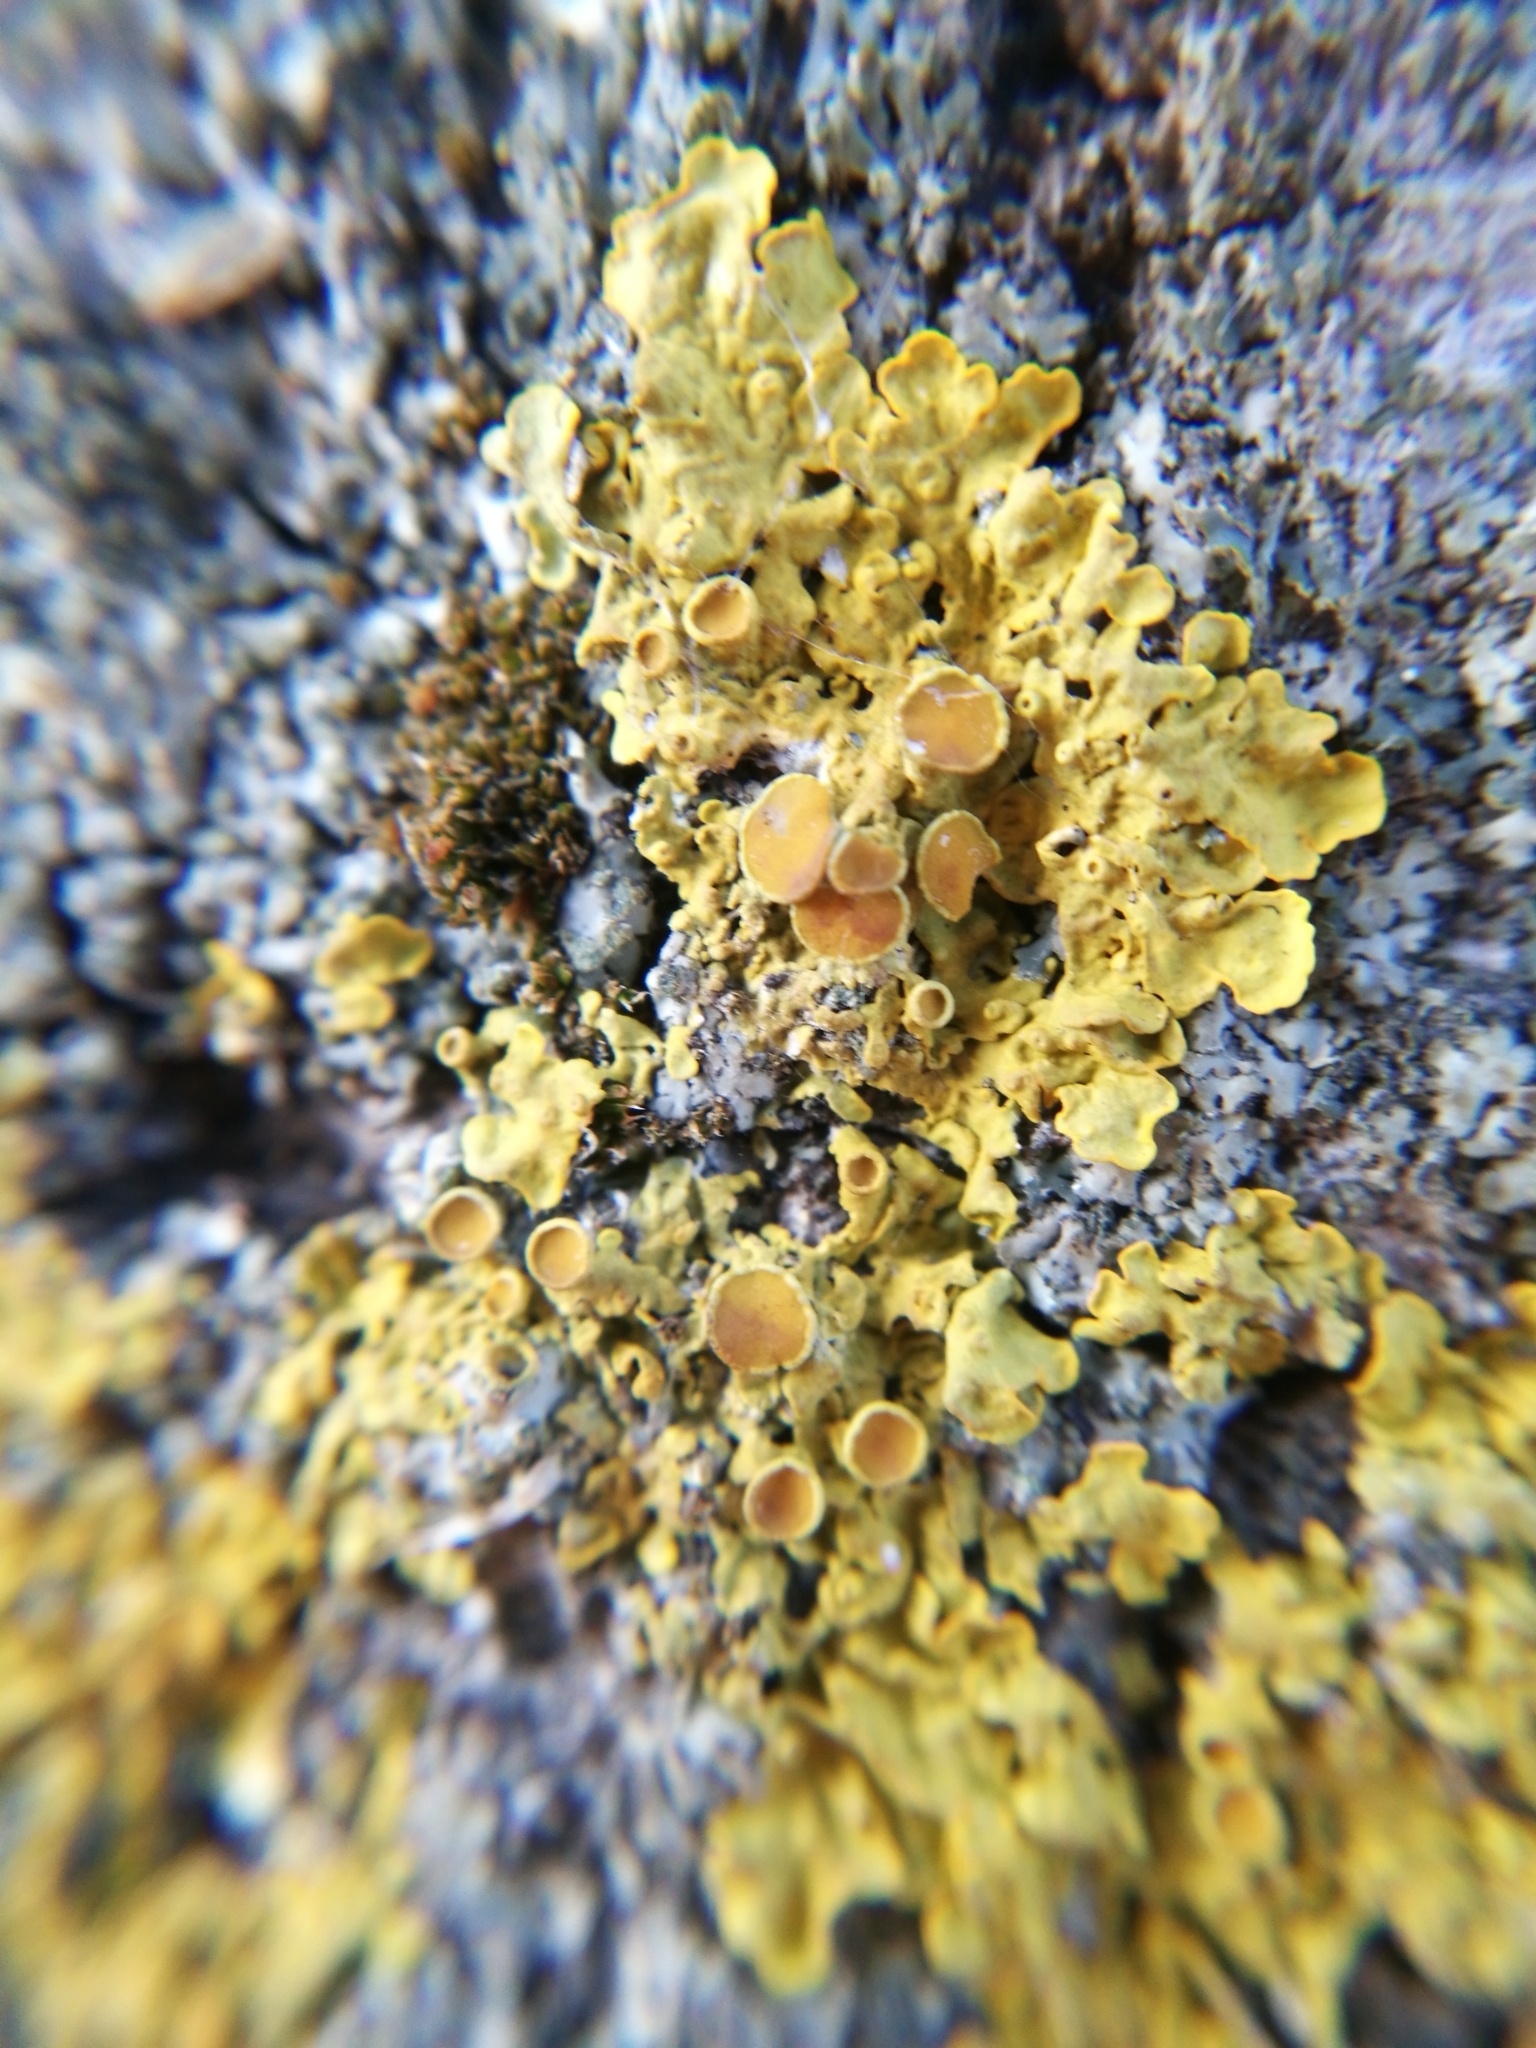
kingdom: Fungi
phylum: Ascomycota
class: Lecanoromycetes
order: Teloschistales
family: Teloschistaceae
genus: Xanthoria
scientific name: Xanthoria parietina
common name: Common orange lichen
